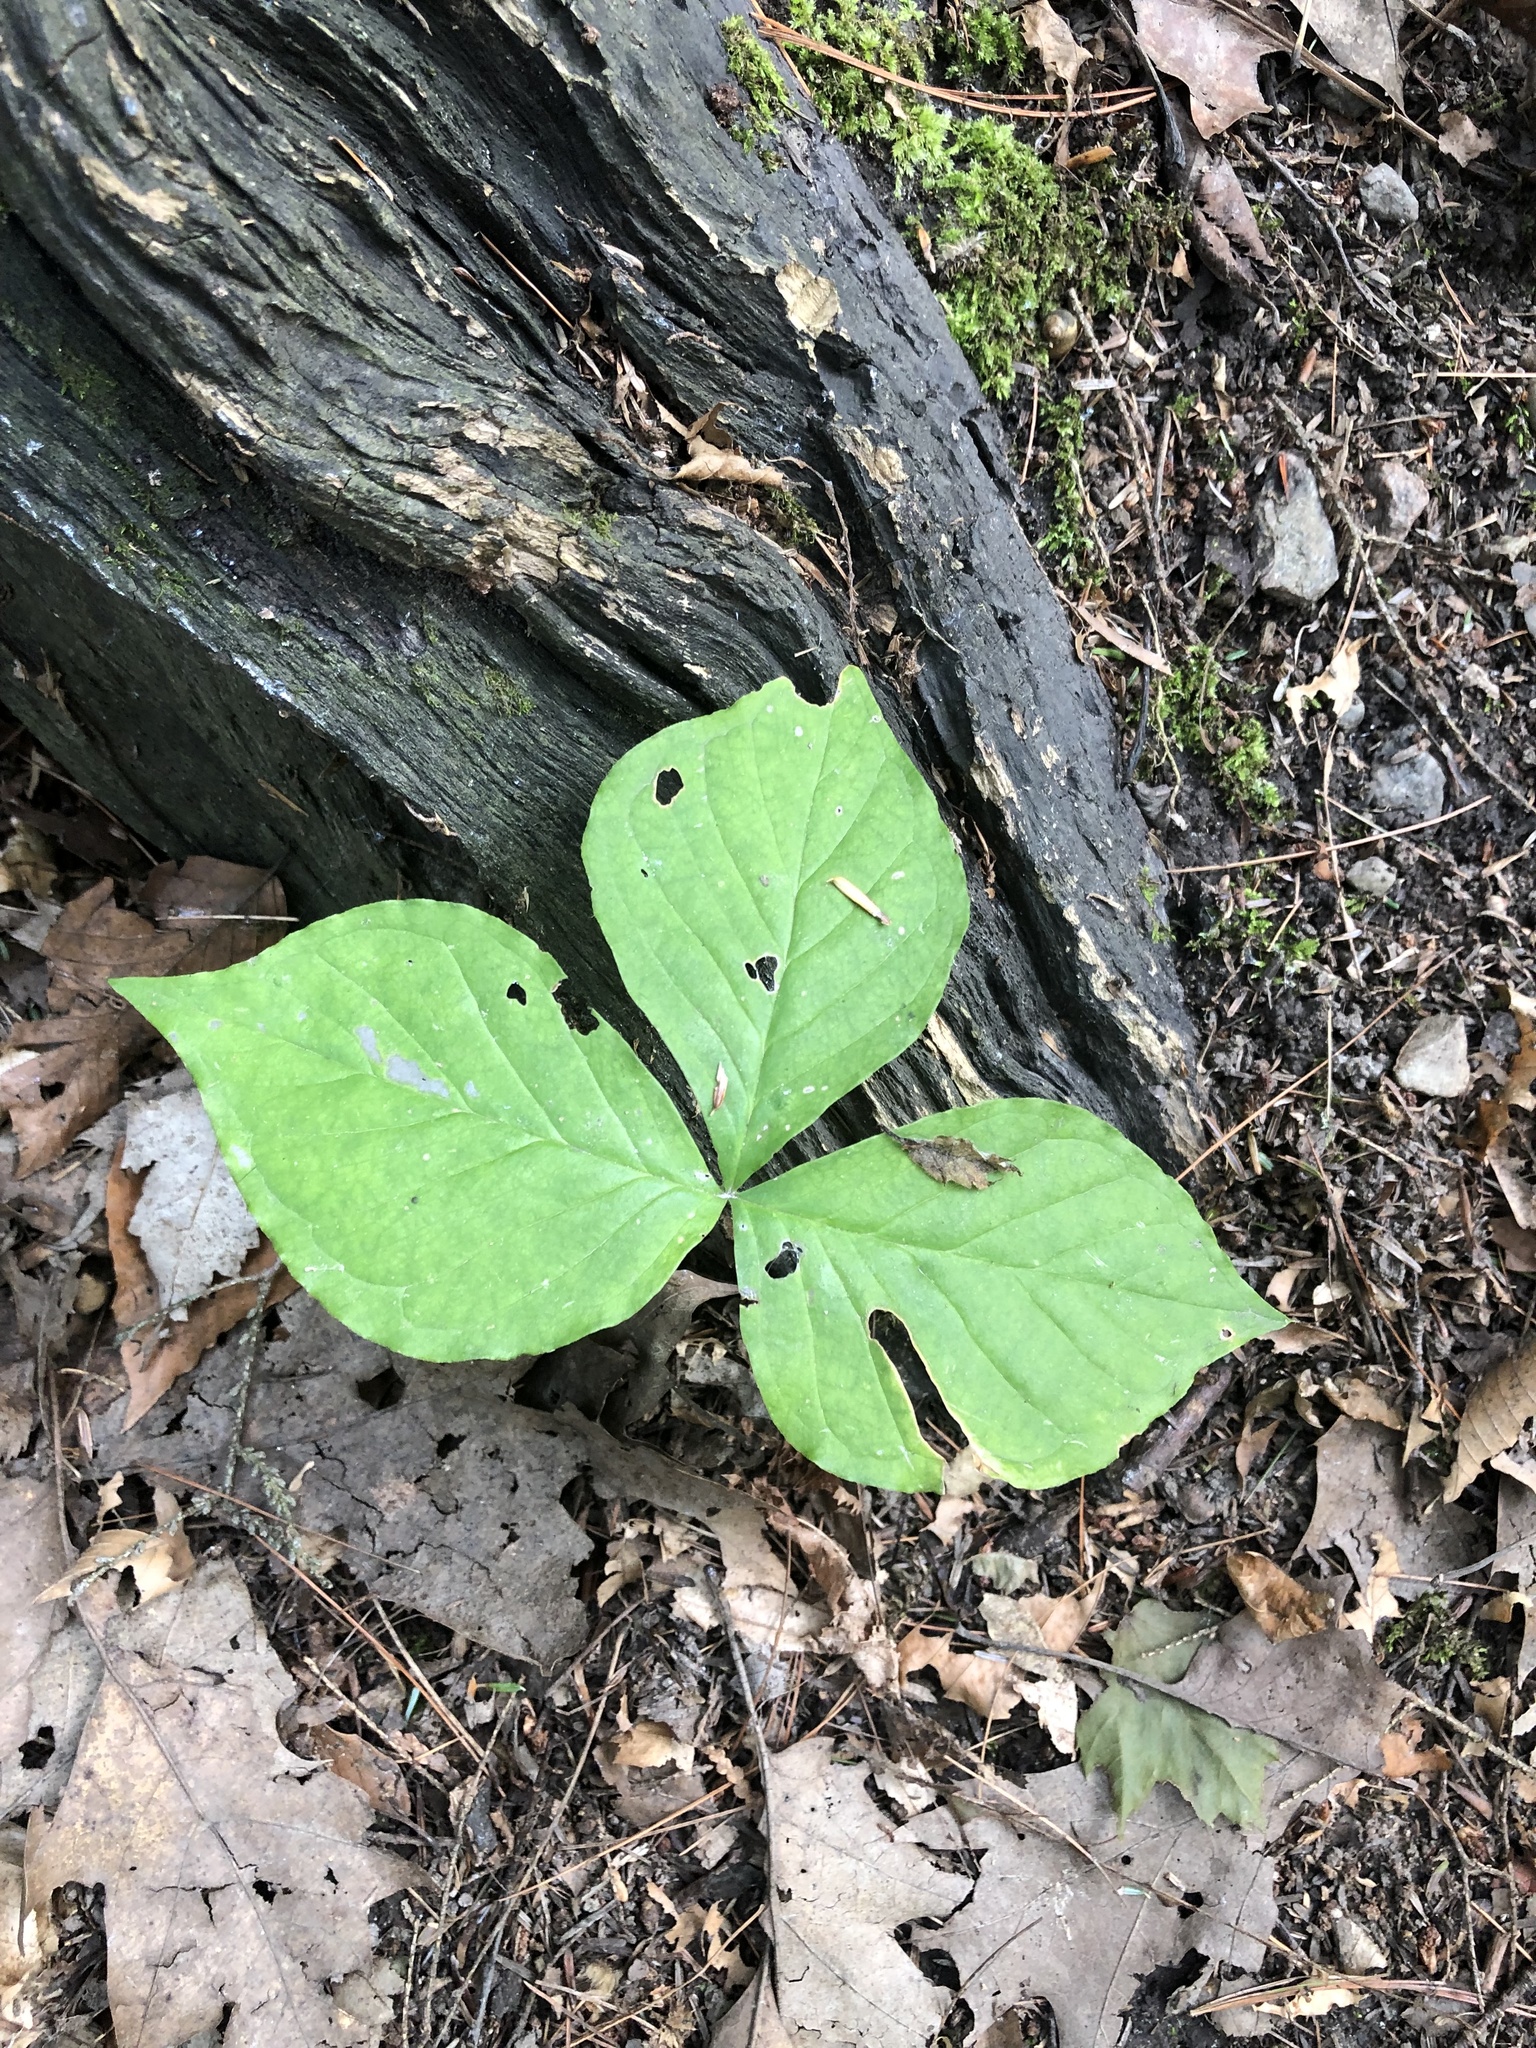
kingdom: Plantae
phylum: Tracheophyta
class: Liliopsida
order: Alismatales
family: Araceae
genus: Arisaema
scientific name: Arisaema triphyllum
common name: Jack-in-the-pulpit
